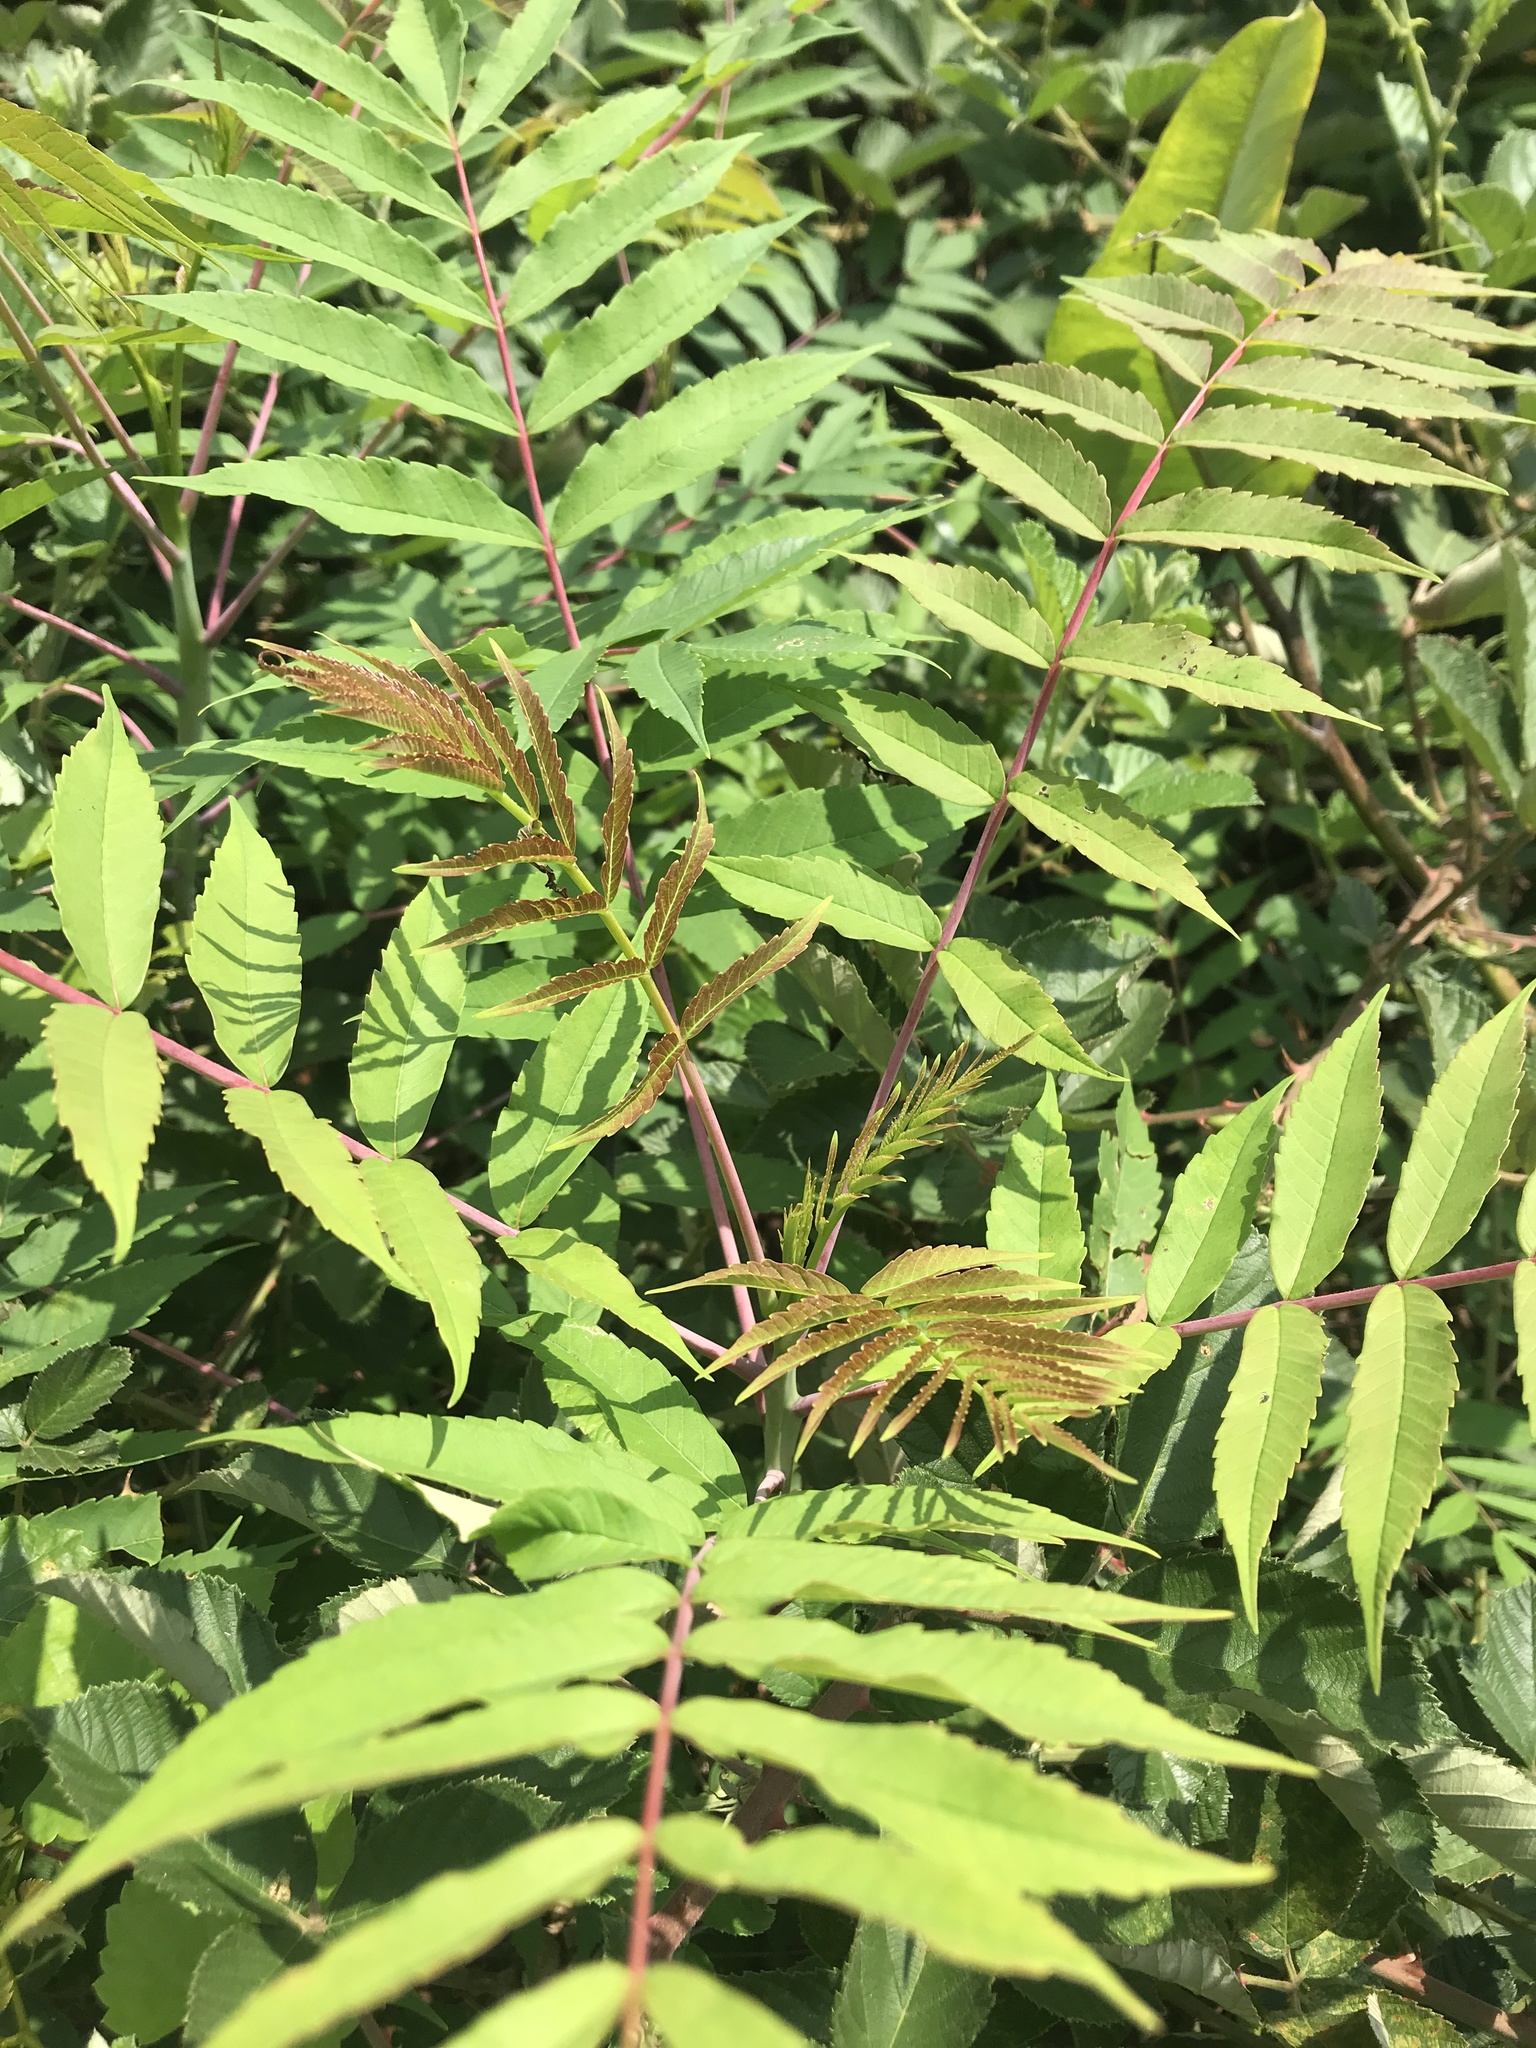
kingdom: Plantae
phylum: Tracheophyta
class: Magnoliopsida
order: Sapindales
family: Anacardiaceae
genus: Rhus
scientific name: Rhus glabra
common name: Scarlet sumac
